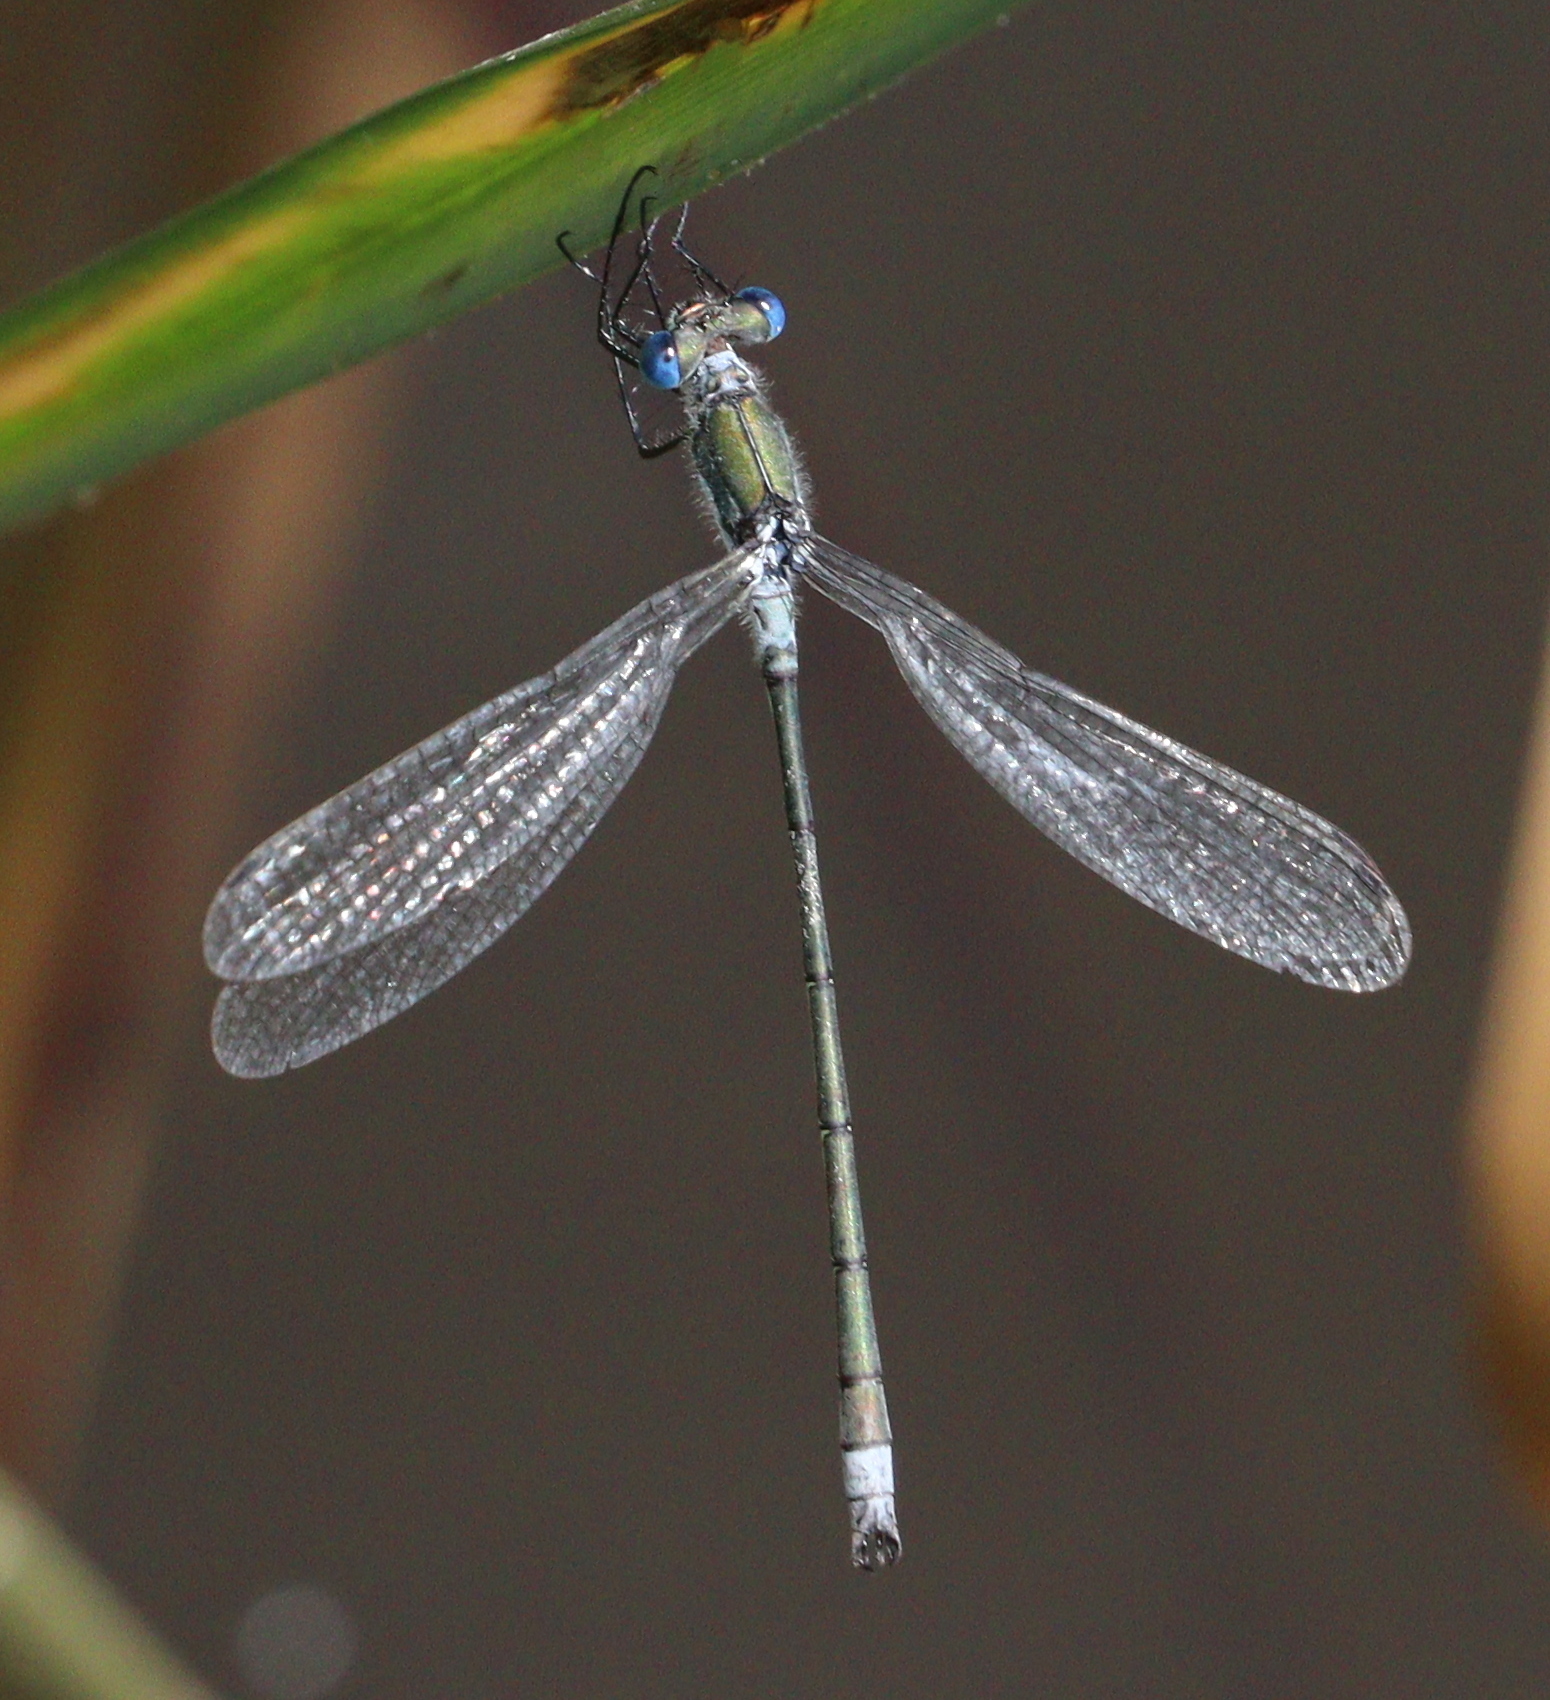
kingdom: Animalia
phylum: Arthropoda
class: Insecta
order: Odonata
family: Lestidae
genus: Lestes
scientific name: Lestes sponsa
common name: Common spreadwing
